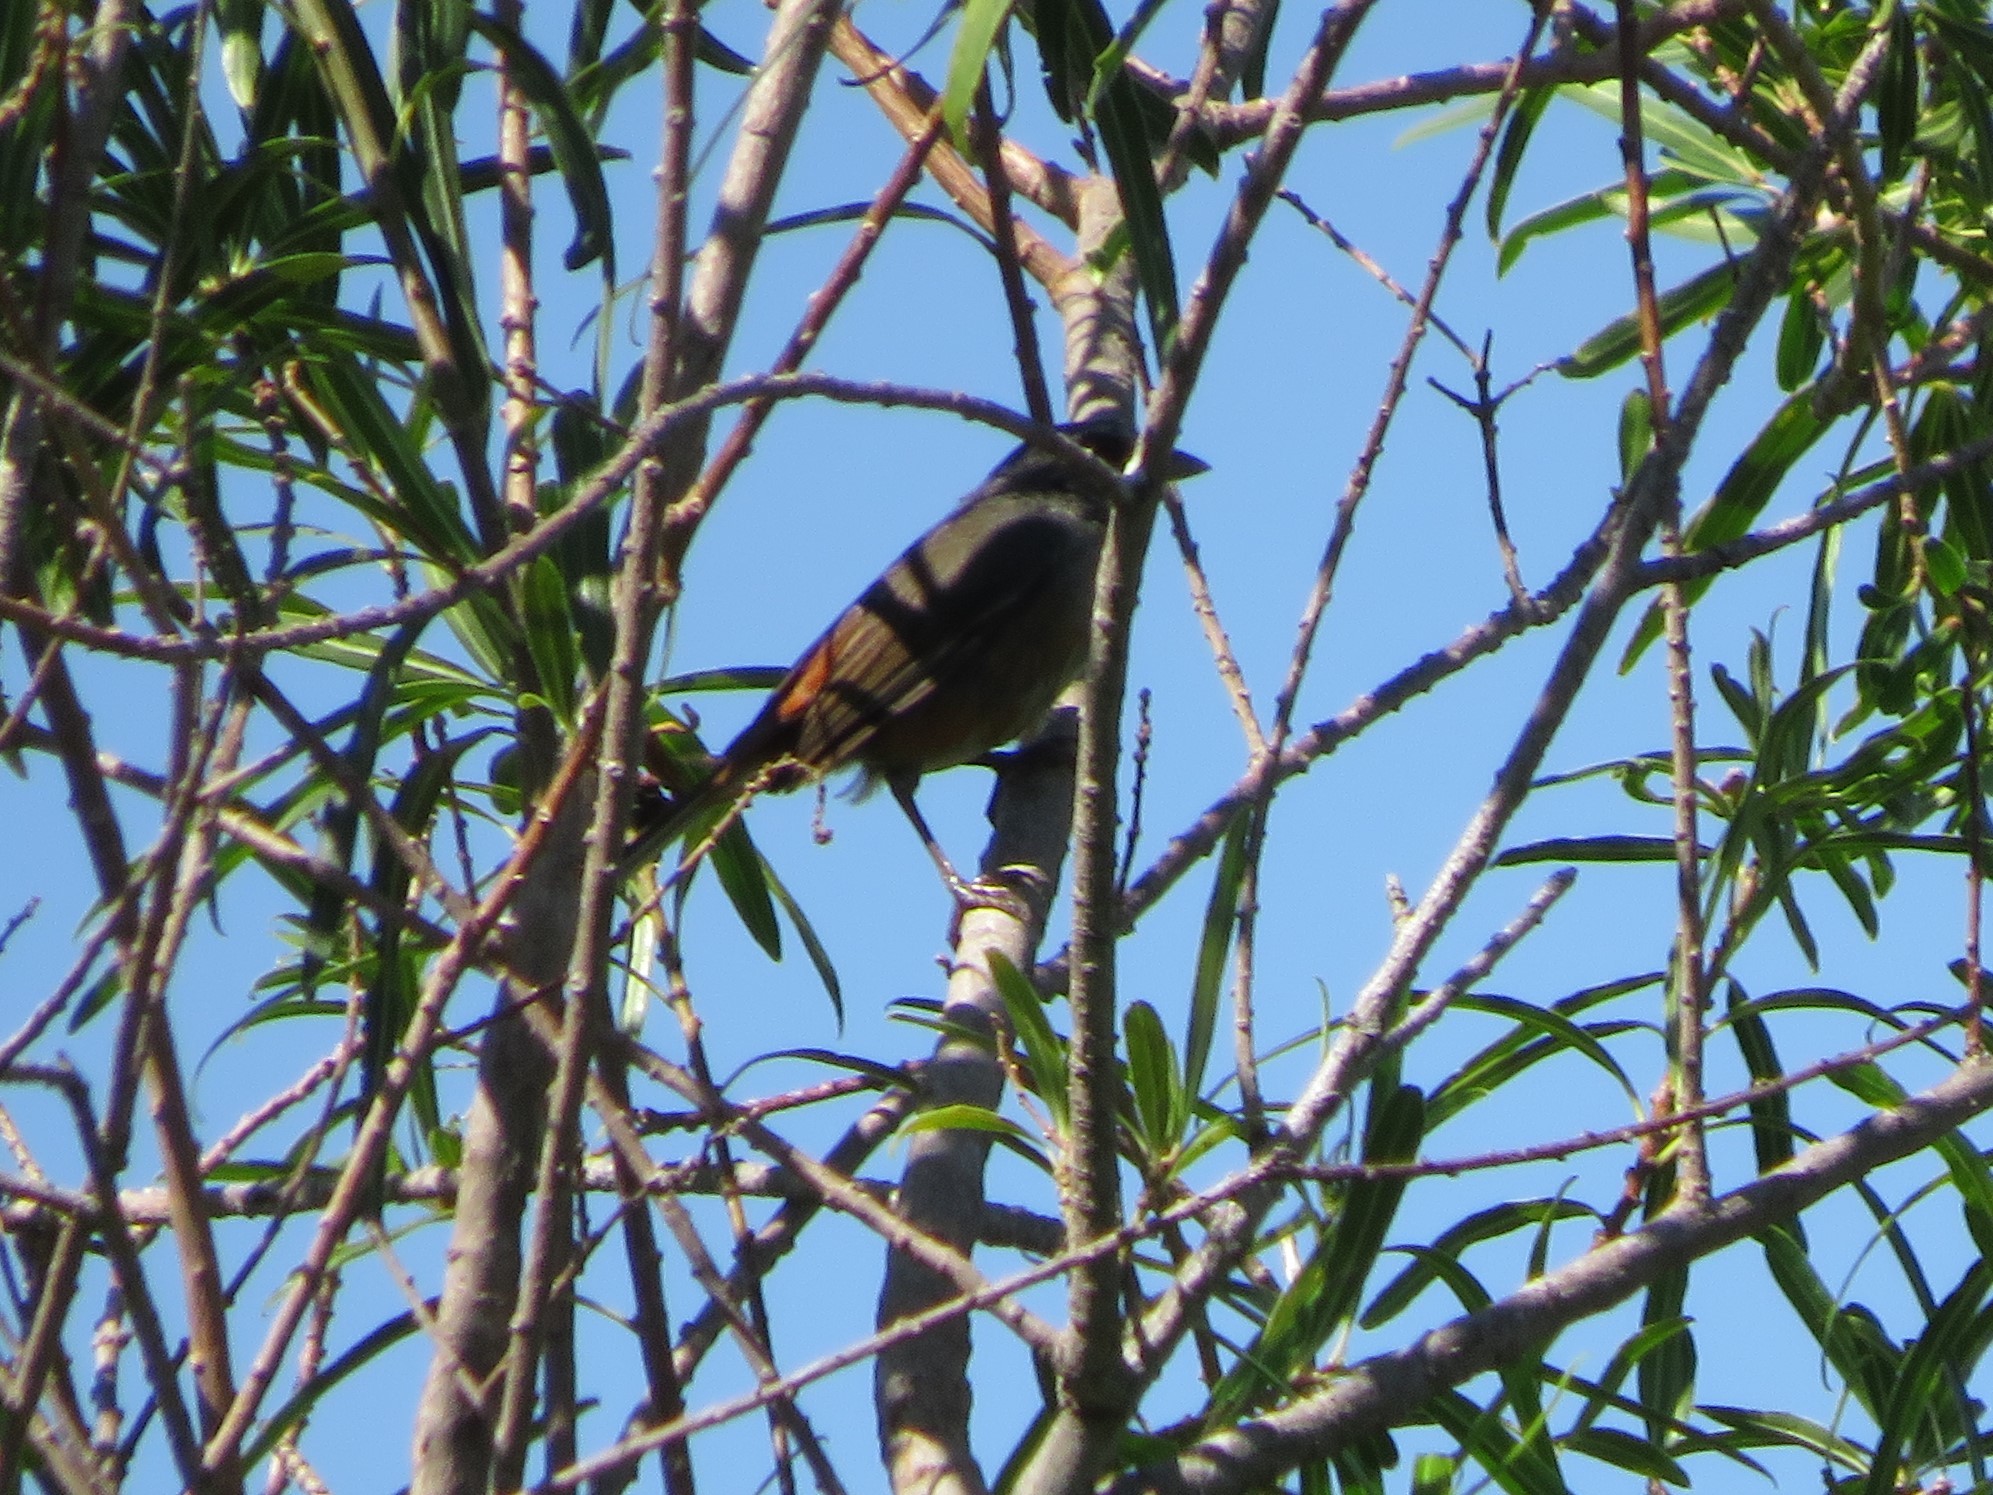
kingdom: Animalia
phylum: Chordata
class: Aves
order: Passeriformes
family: Thraupidae
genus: Microspingus
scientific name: Microspingus cabanisi
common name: Gray-throated warbling-finch
